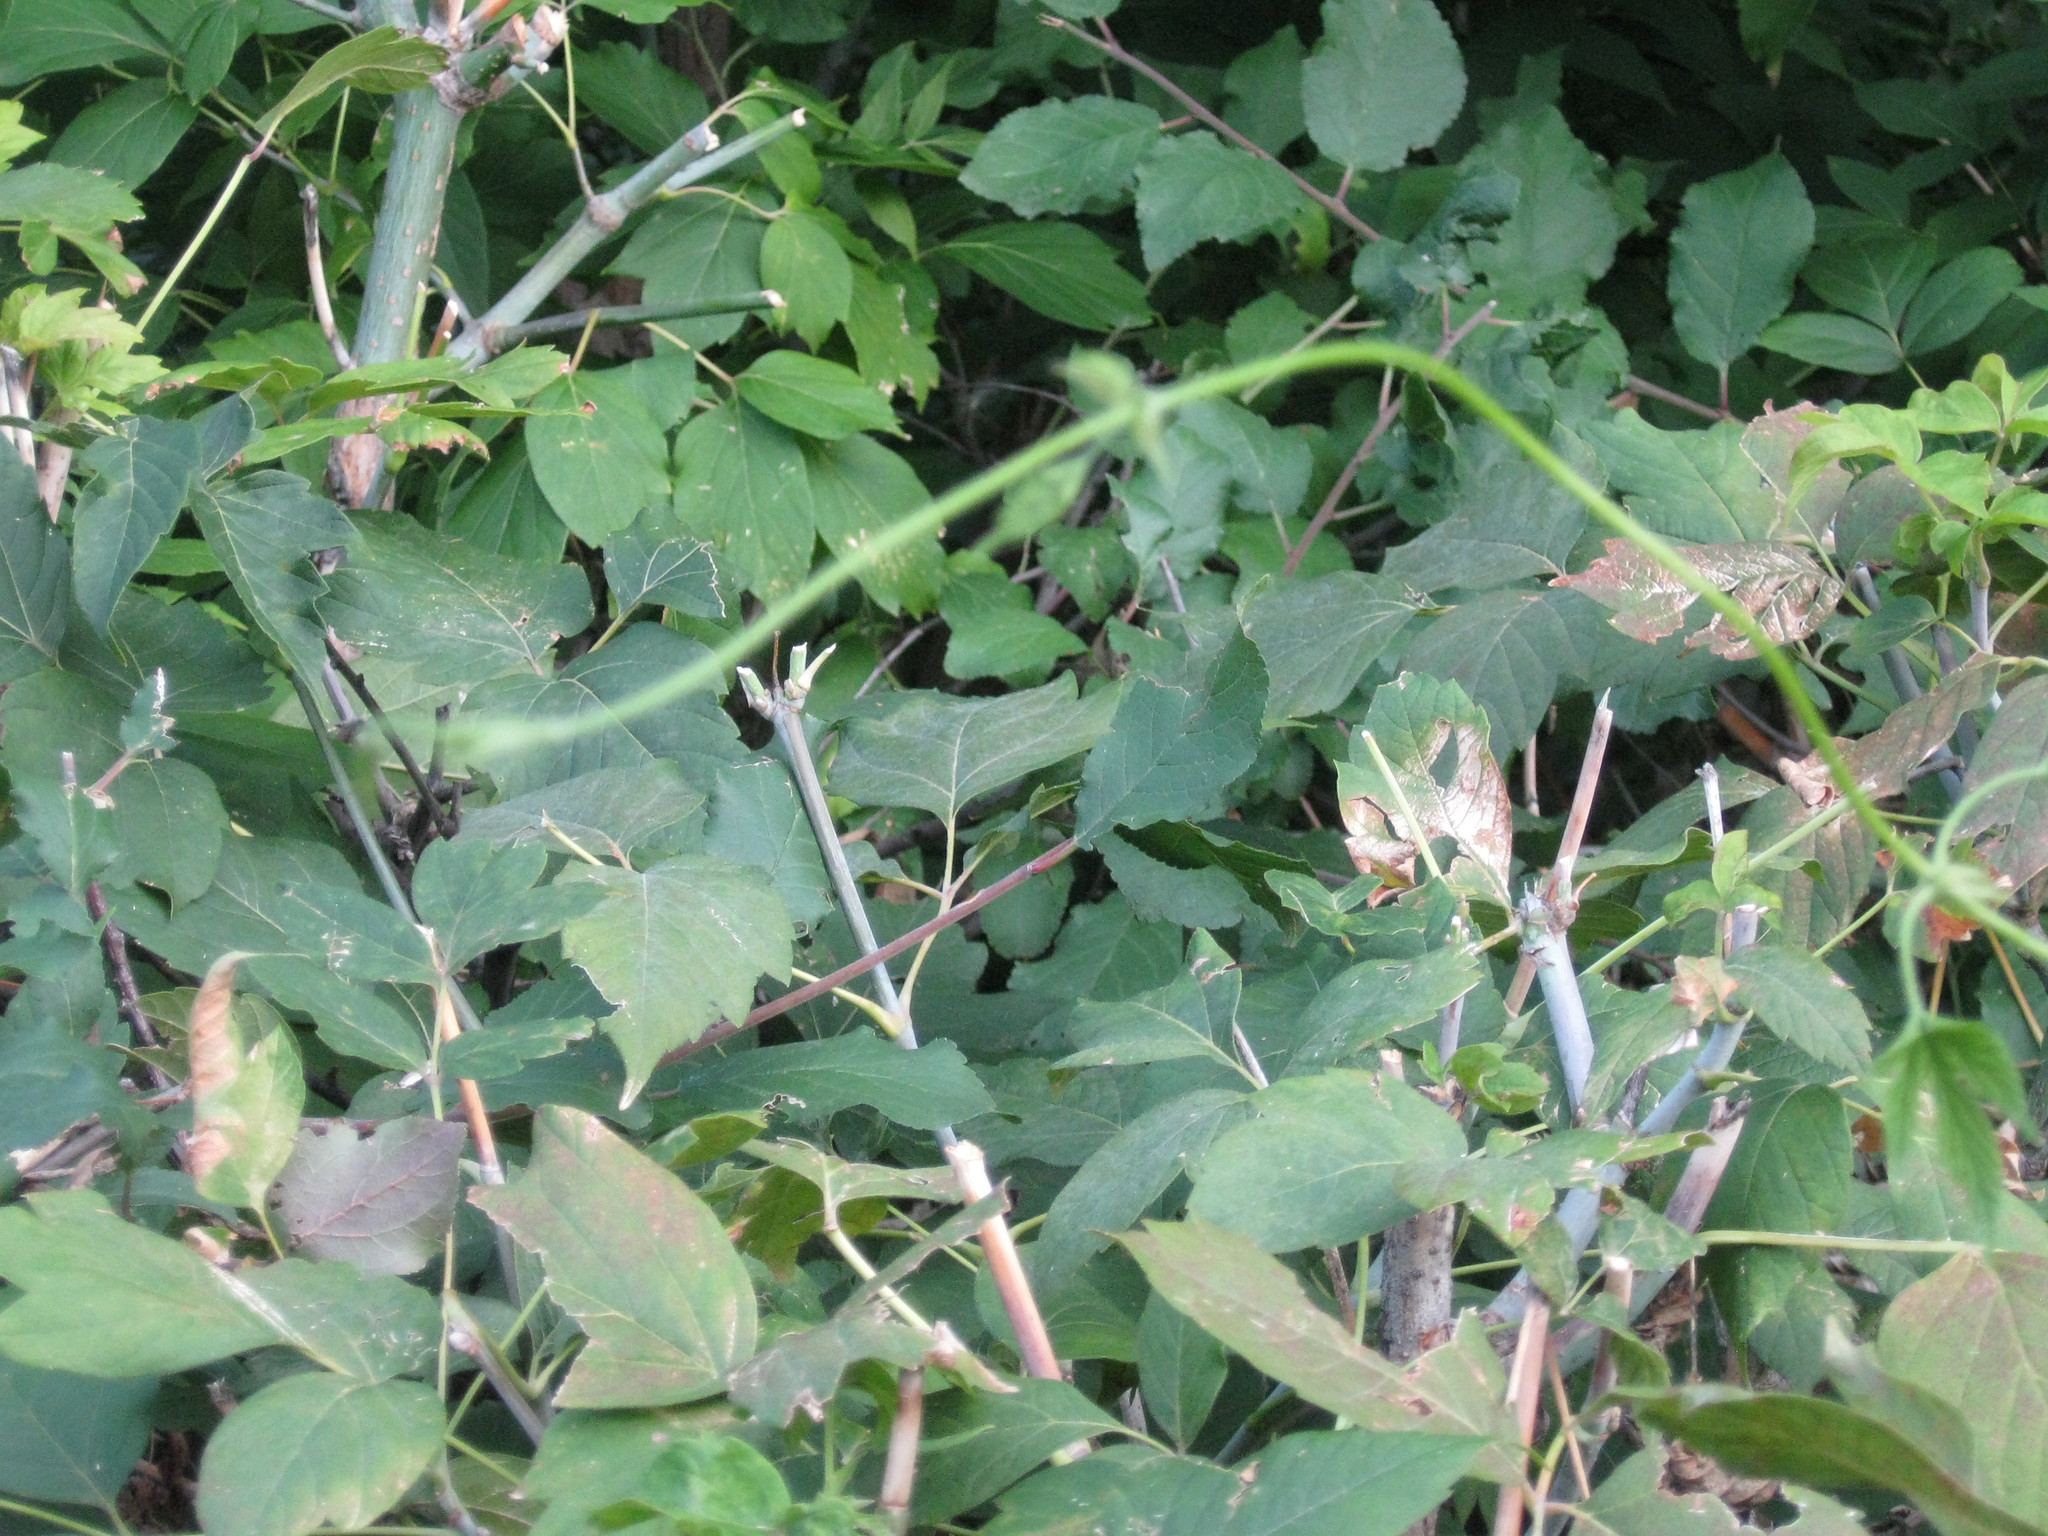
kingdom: Plantae
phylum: Tracheophyta
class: Magnoliopsida
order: Sapindales
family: Sapindaceae
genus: Acer
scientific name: Acer negundo
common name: Ashleaf maple
